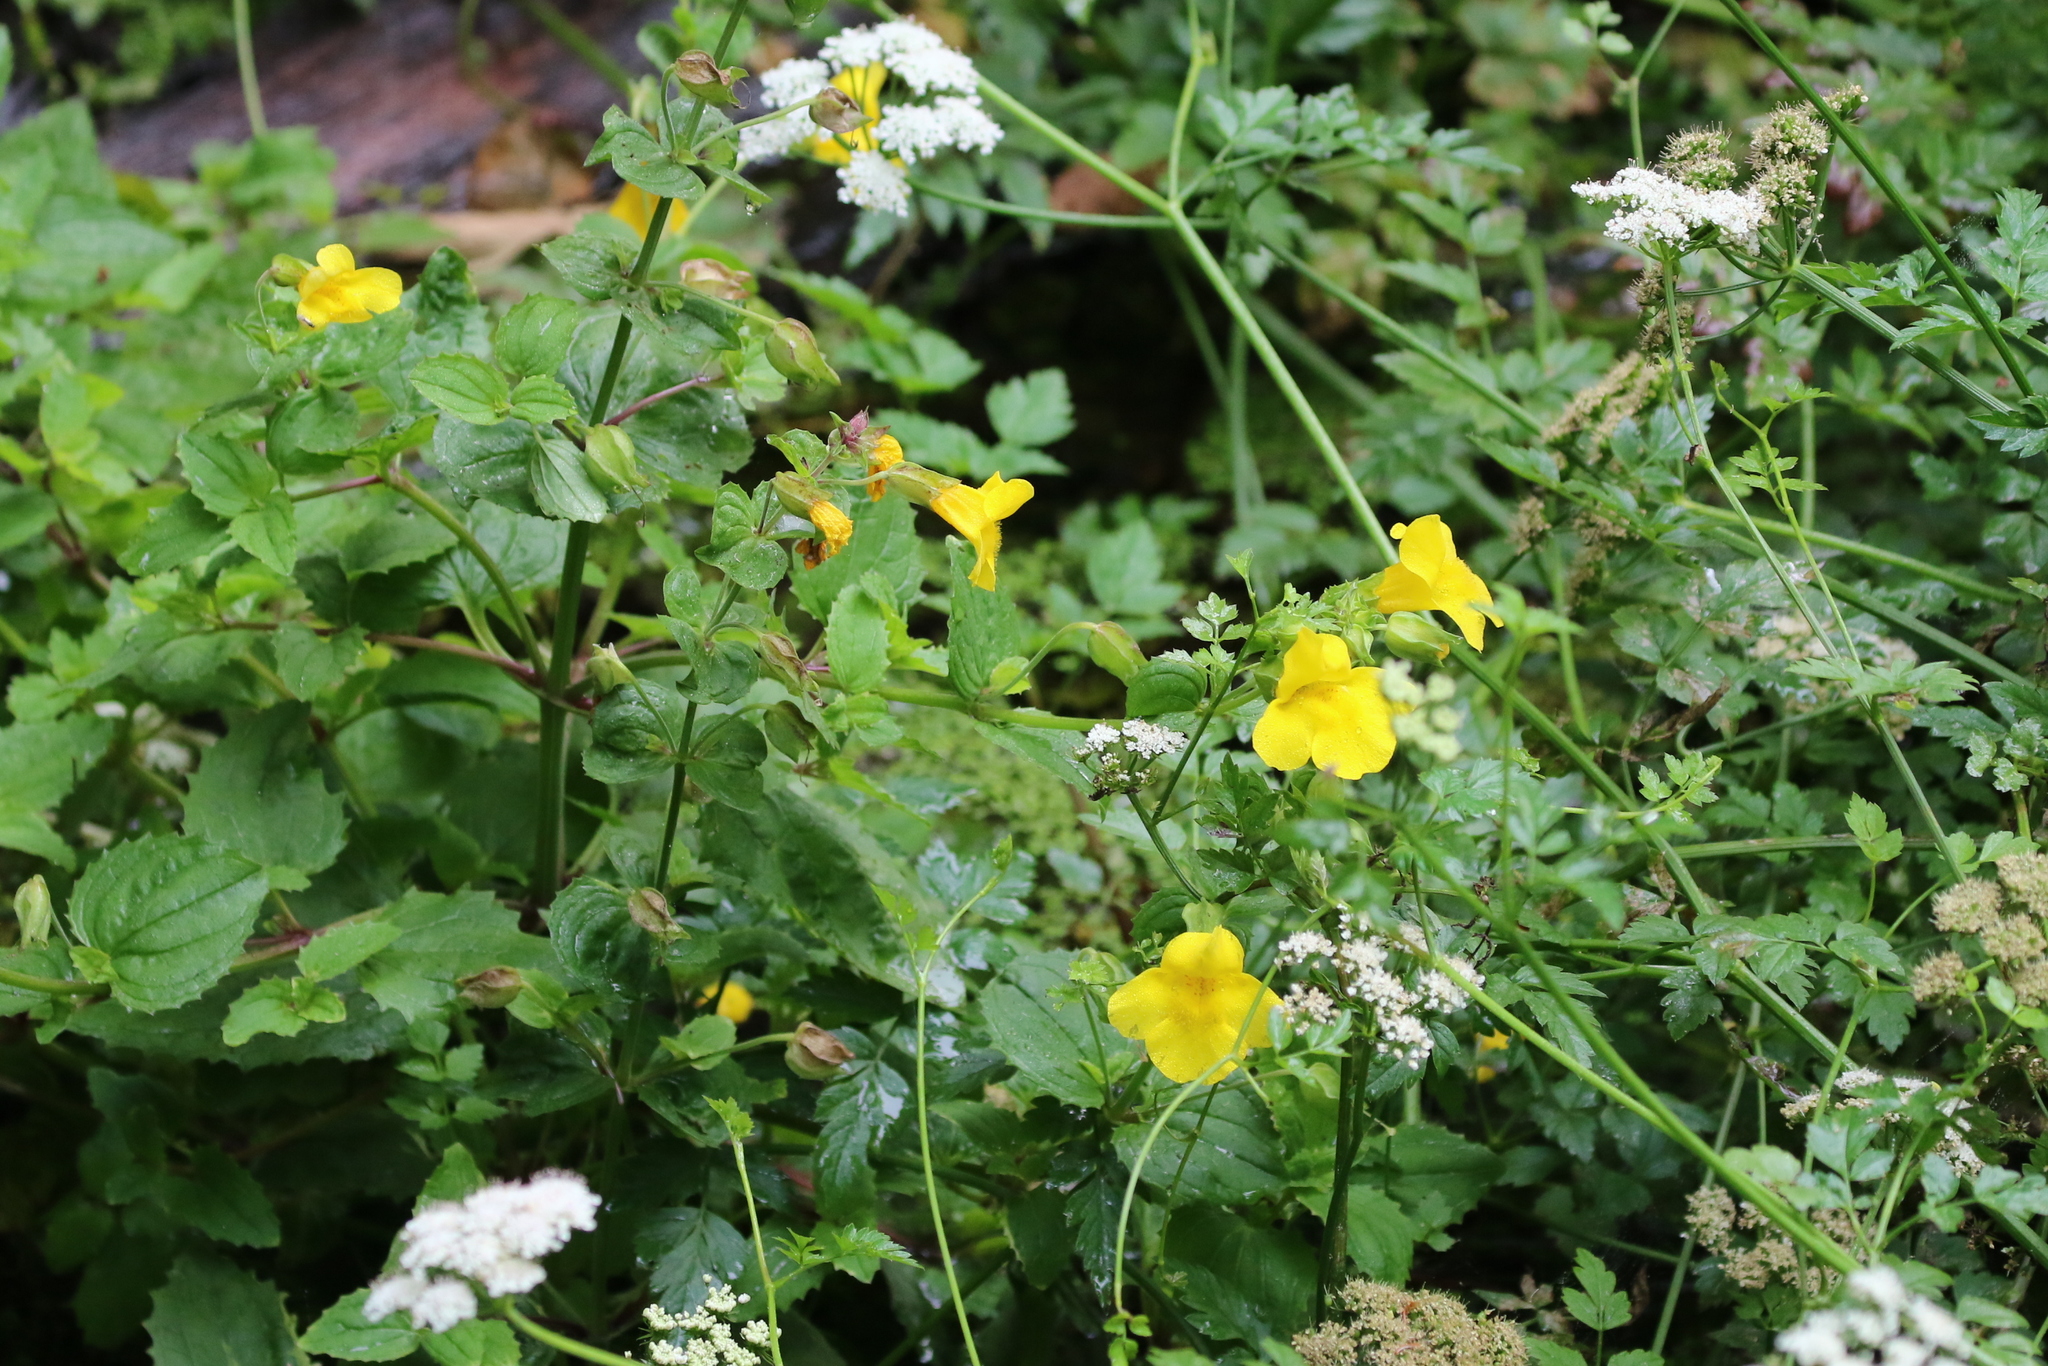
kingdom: Plantae
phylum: Tracheophyta
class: Magnoliopsida
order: Lamiales
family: Phrymaceae
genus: Erythranthe
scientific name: Erythranthe decora
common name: Mannered monkeyflower
